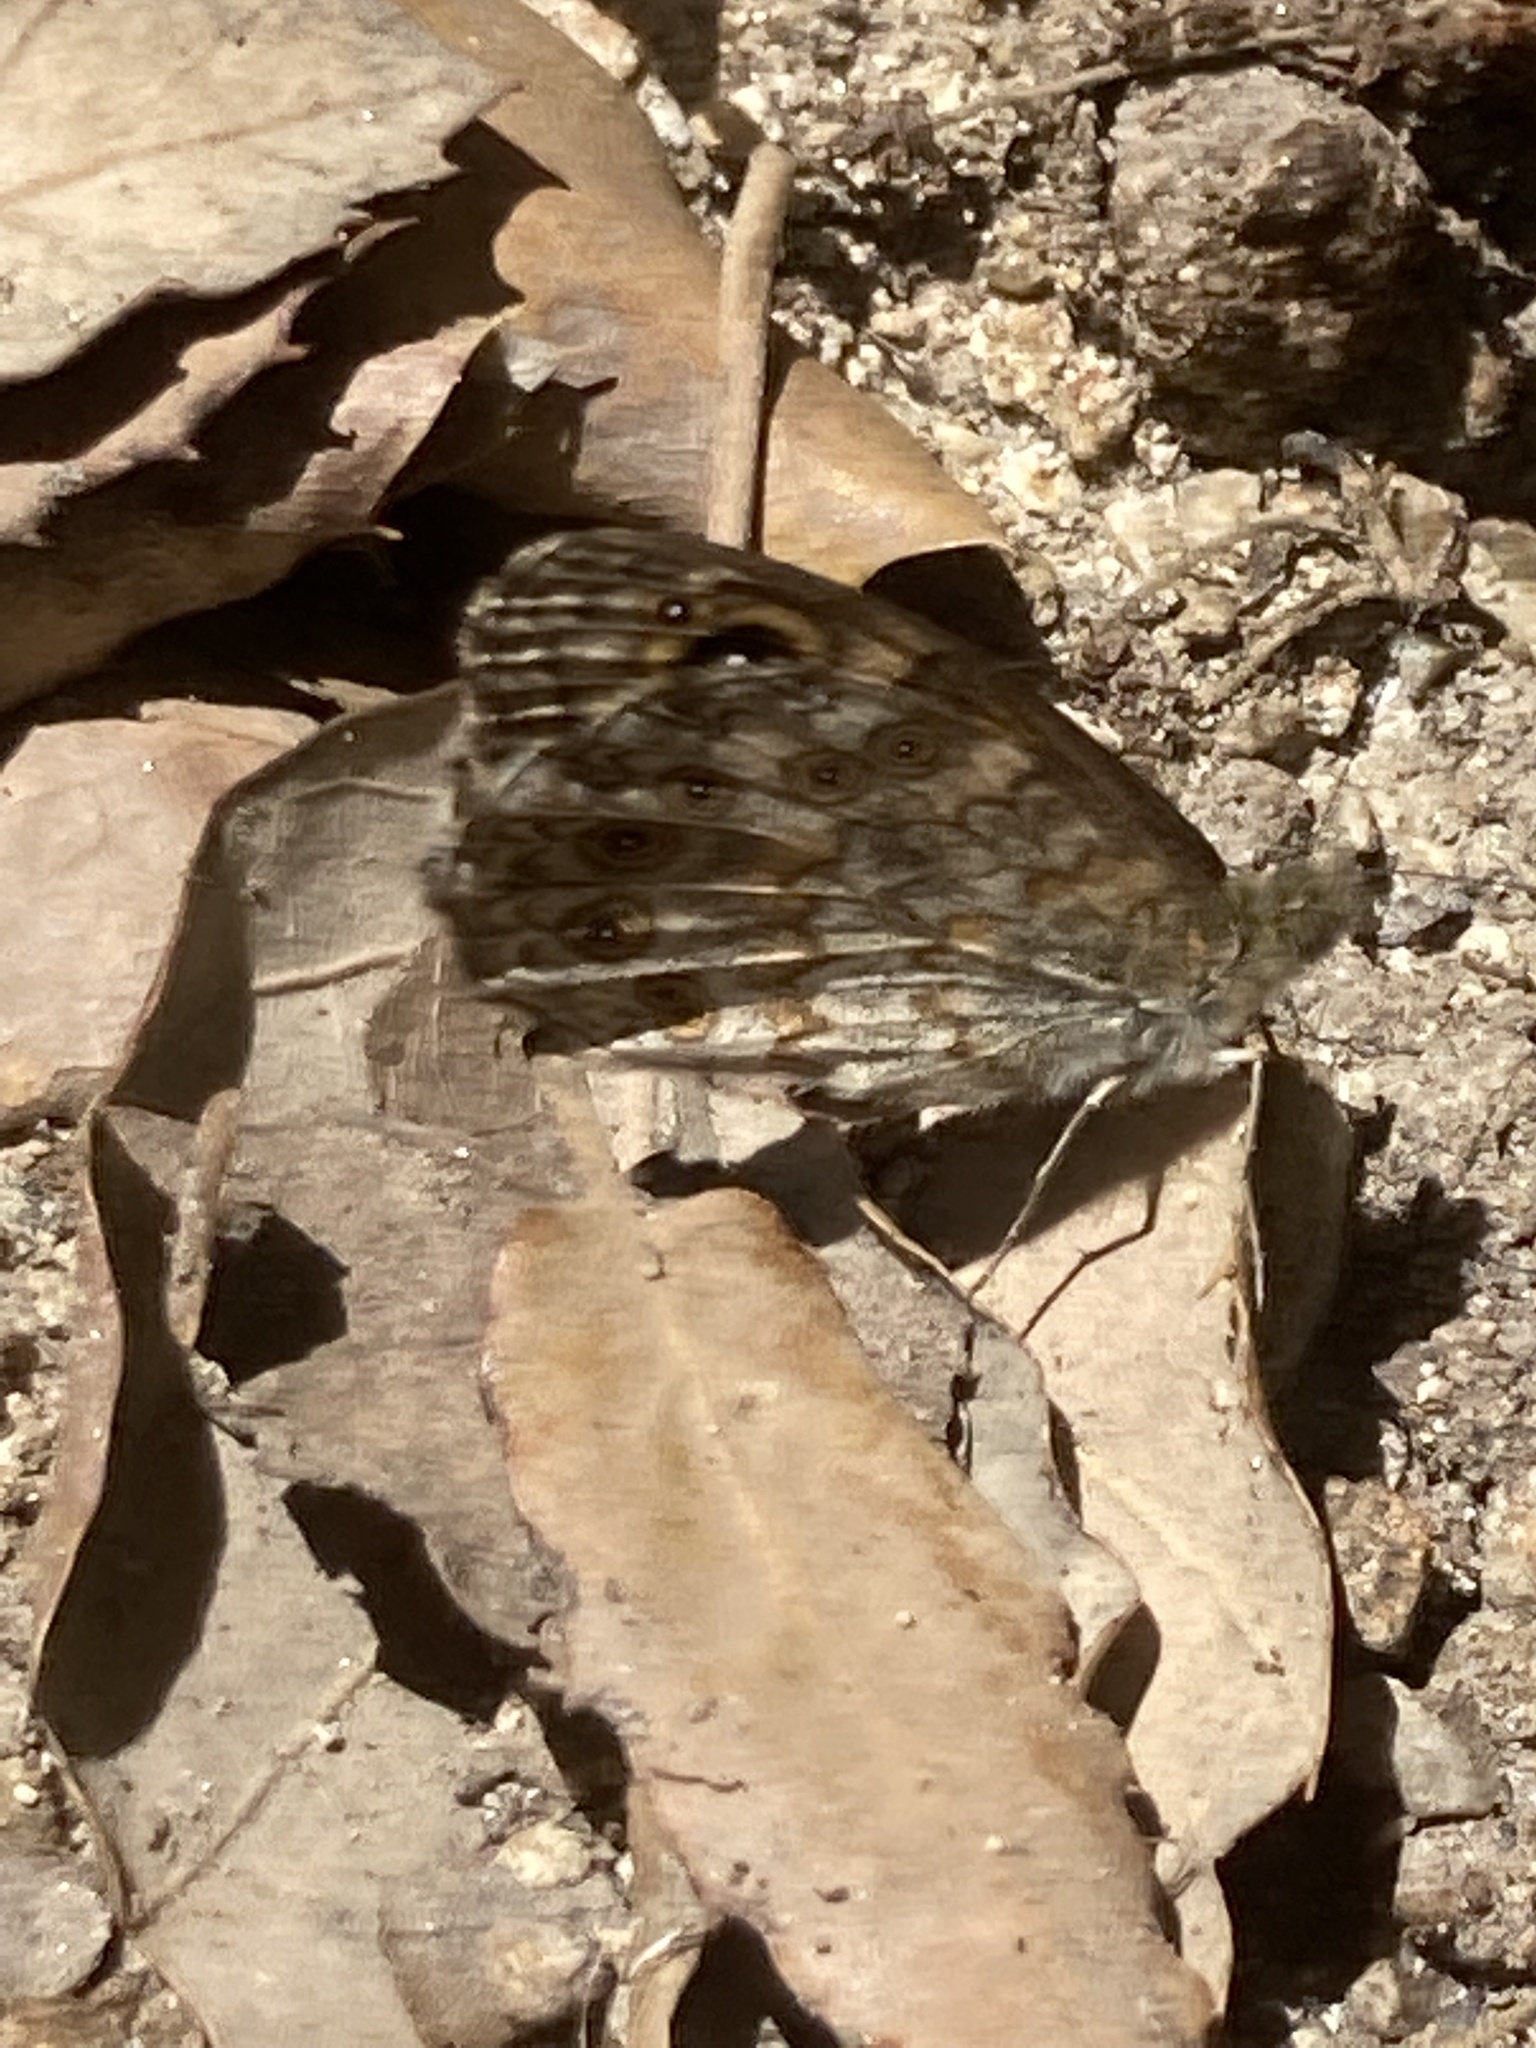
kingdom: Animalia
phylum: Arthropoda
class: Insecta
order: Lepidoptera
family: Nymphalidae
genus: Pararge
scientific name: Pararge Lasiommata megera
